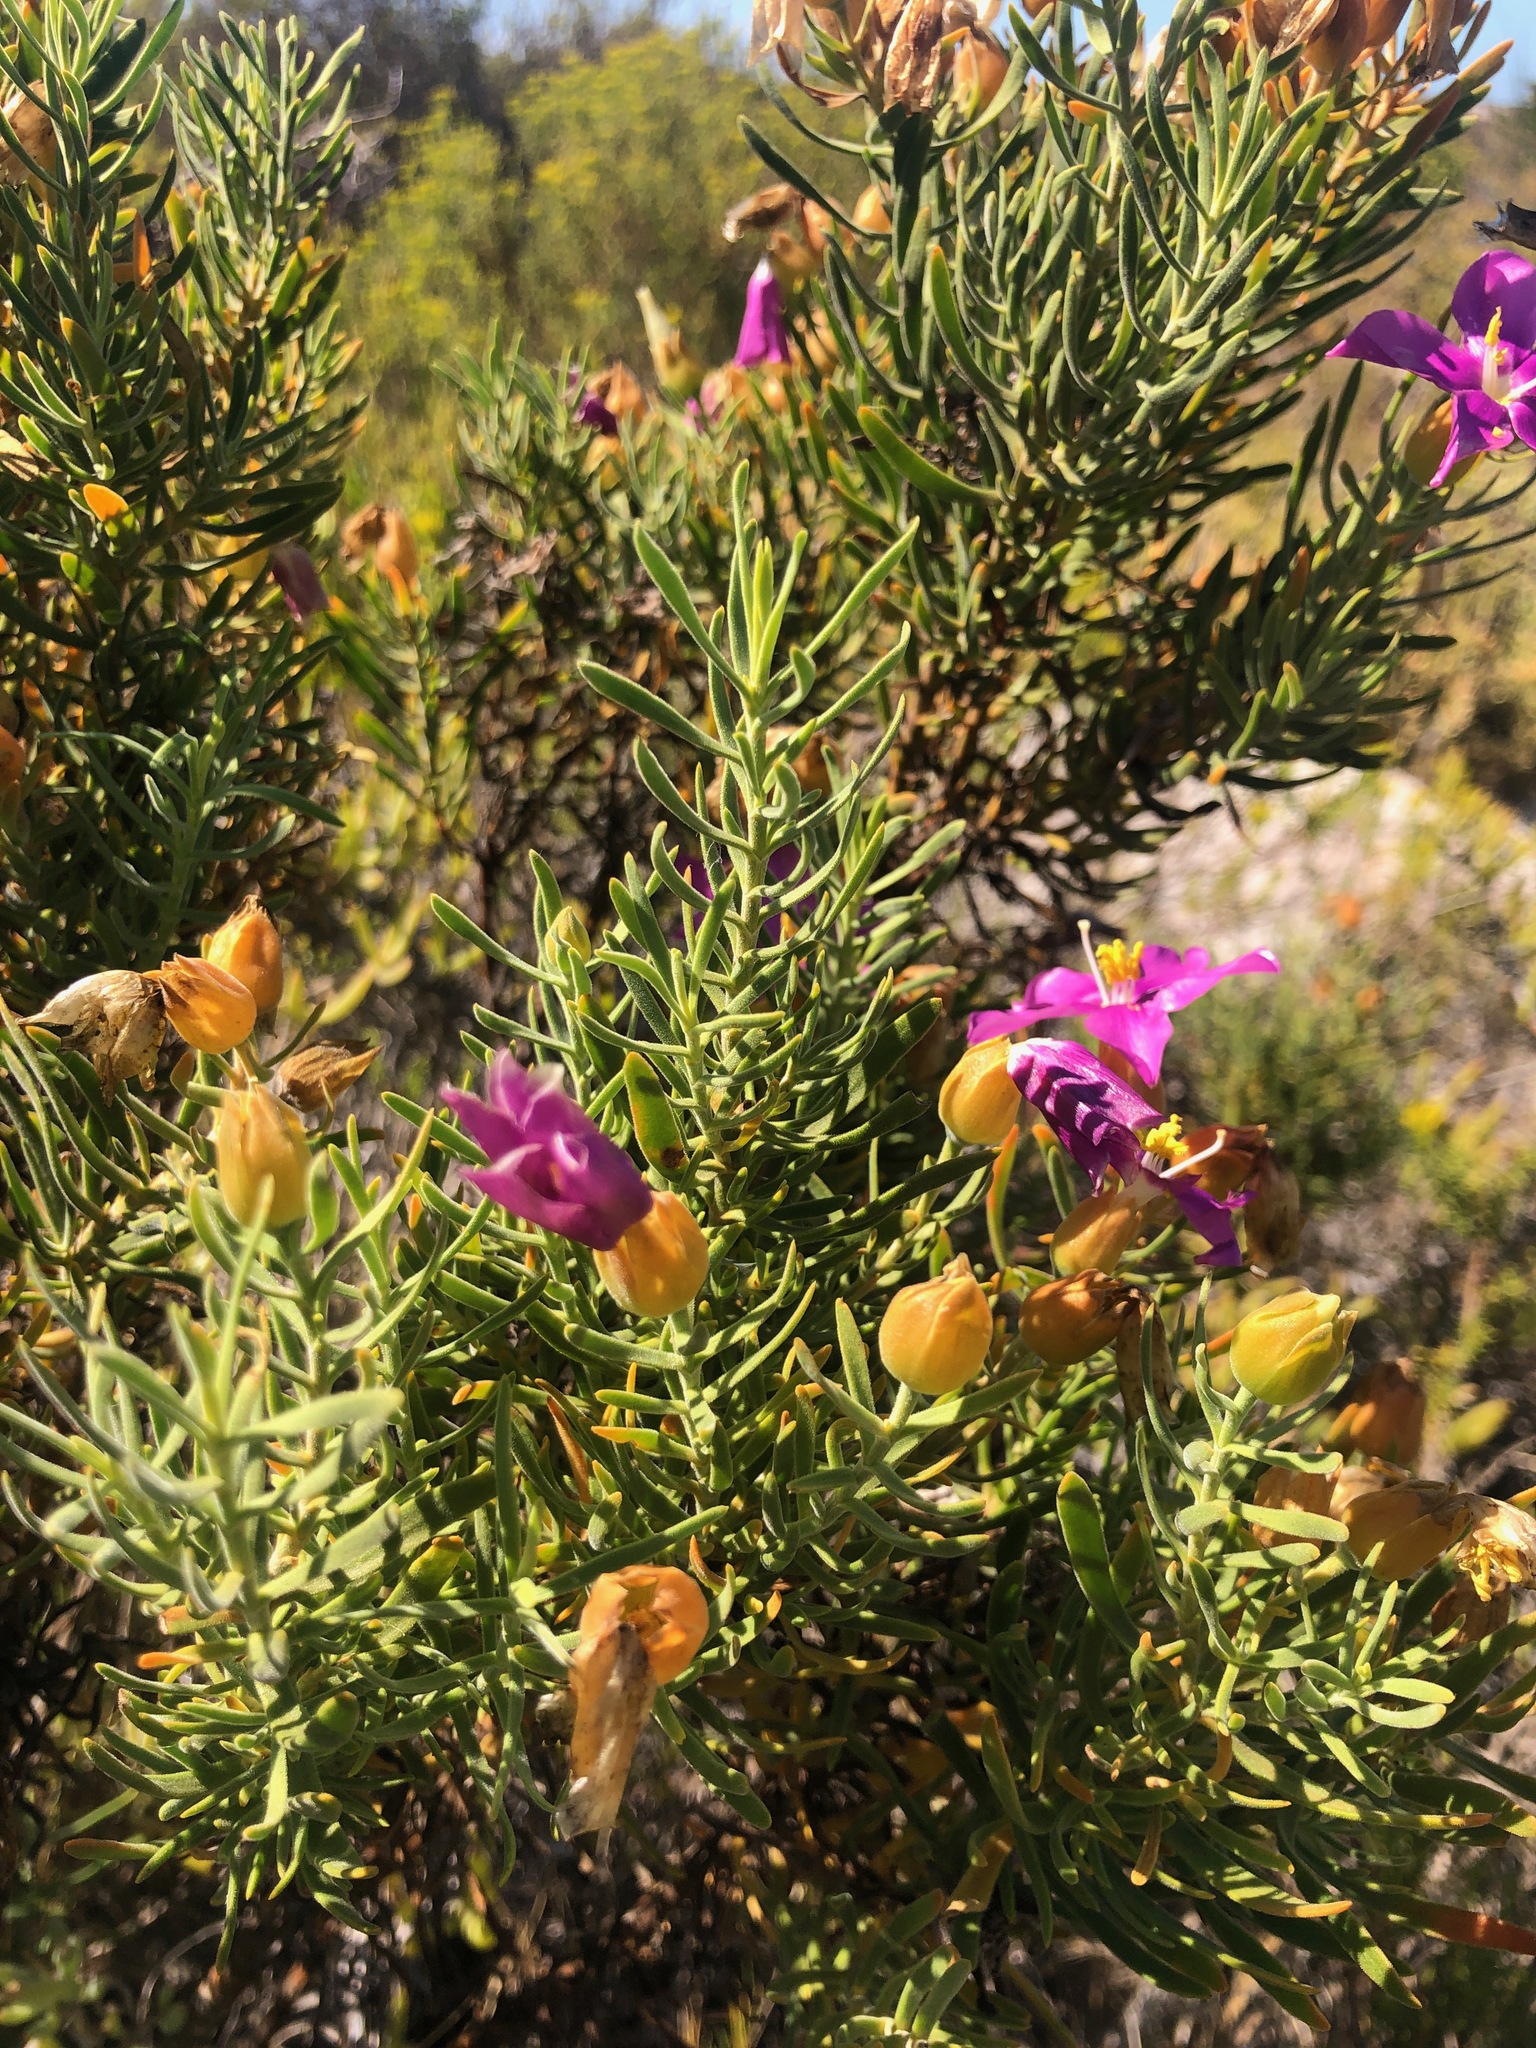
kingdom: Plantae
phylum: Tracheophyta
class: Magnoliopsida
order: Gentianales
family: Gentianaceae
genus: Orphium
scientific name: Orphium frutescens
